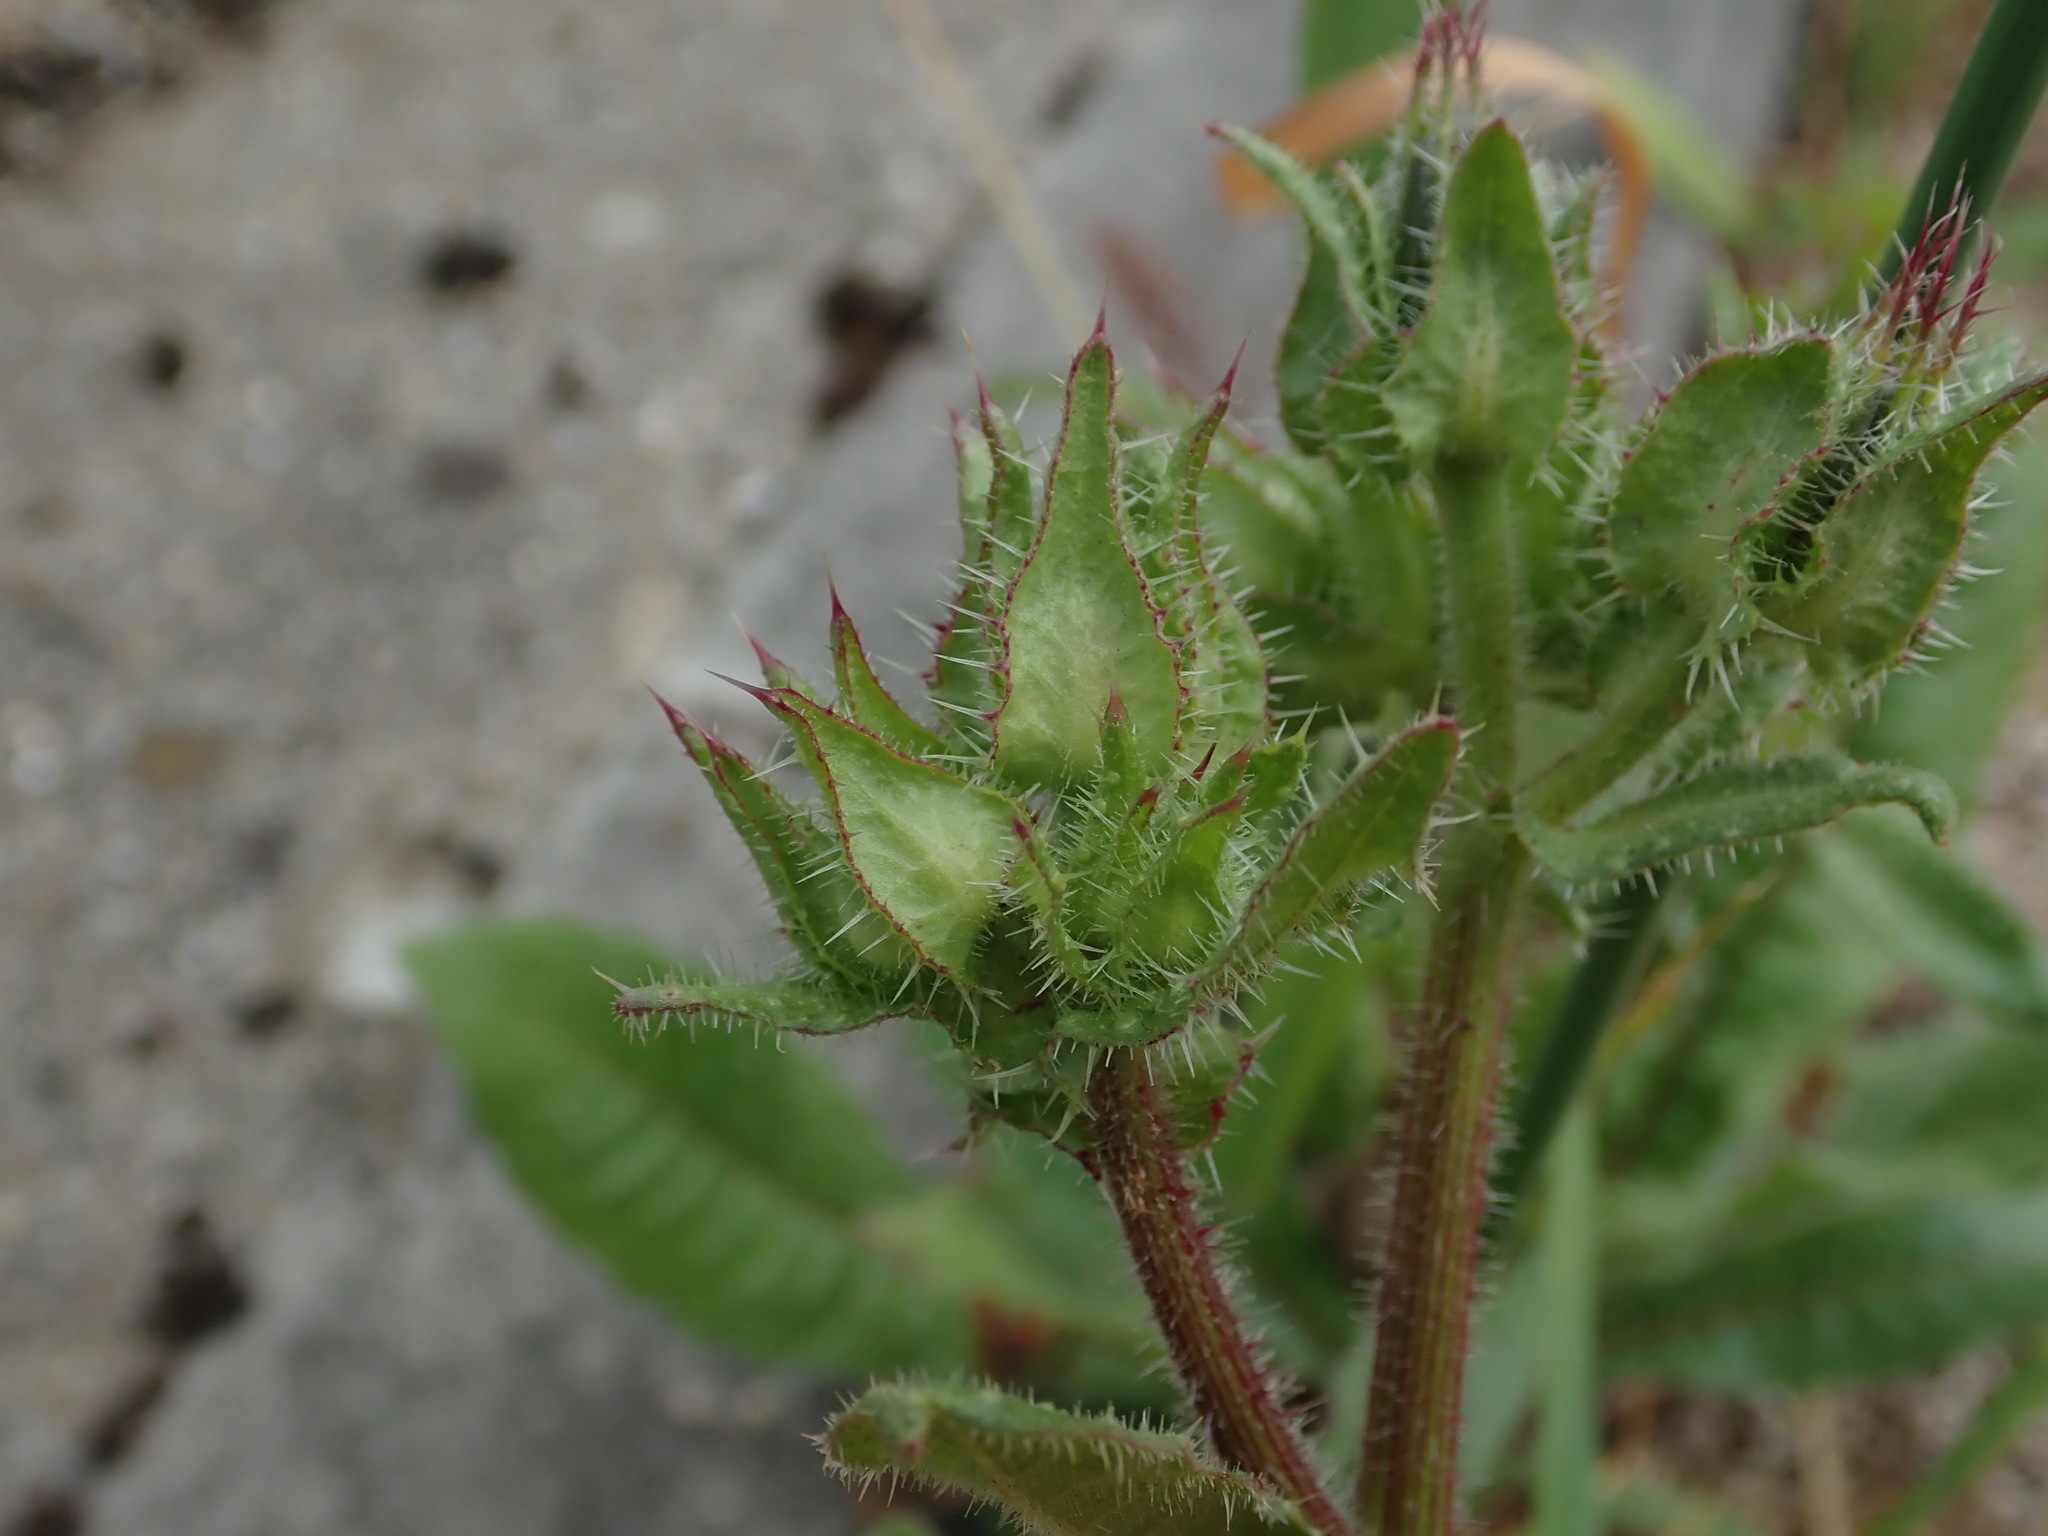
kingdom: Plantae
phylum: Tracheophyta
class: Magnoliopsida
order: Asterales
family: Asteraceae
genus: Helminthotheca
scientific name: Helminthotheca echioides
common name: Ox-tongue
